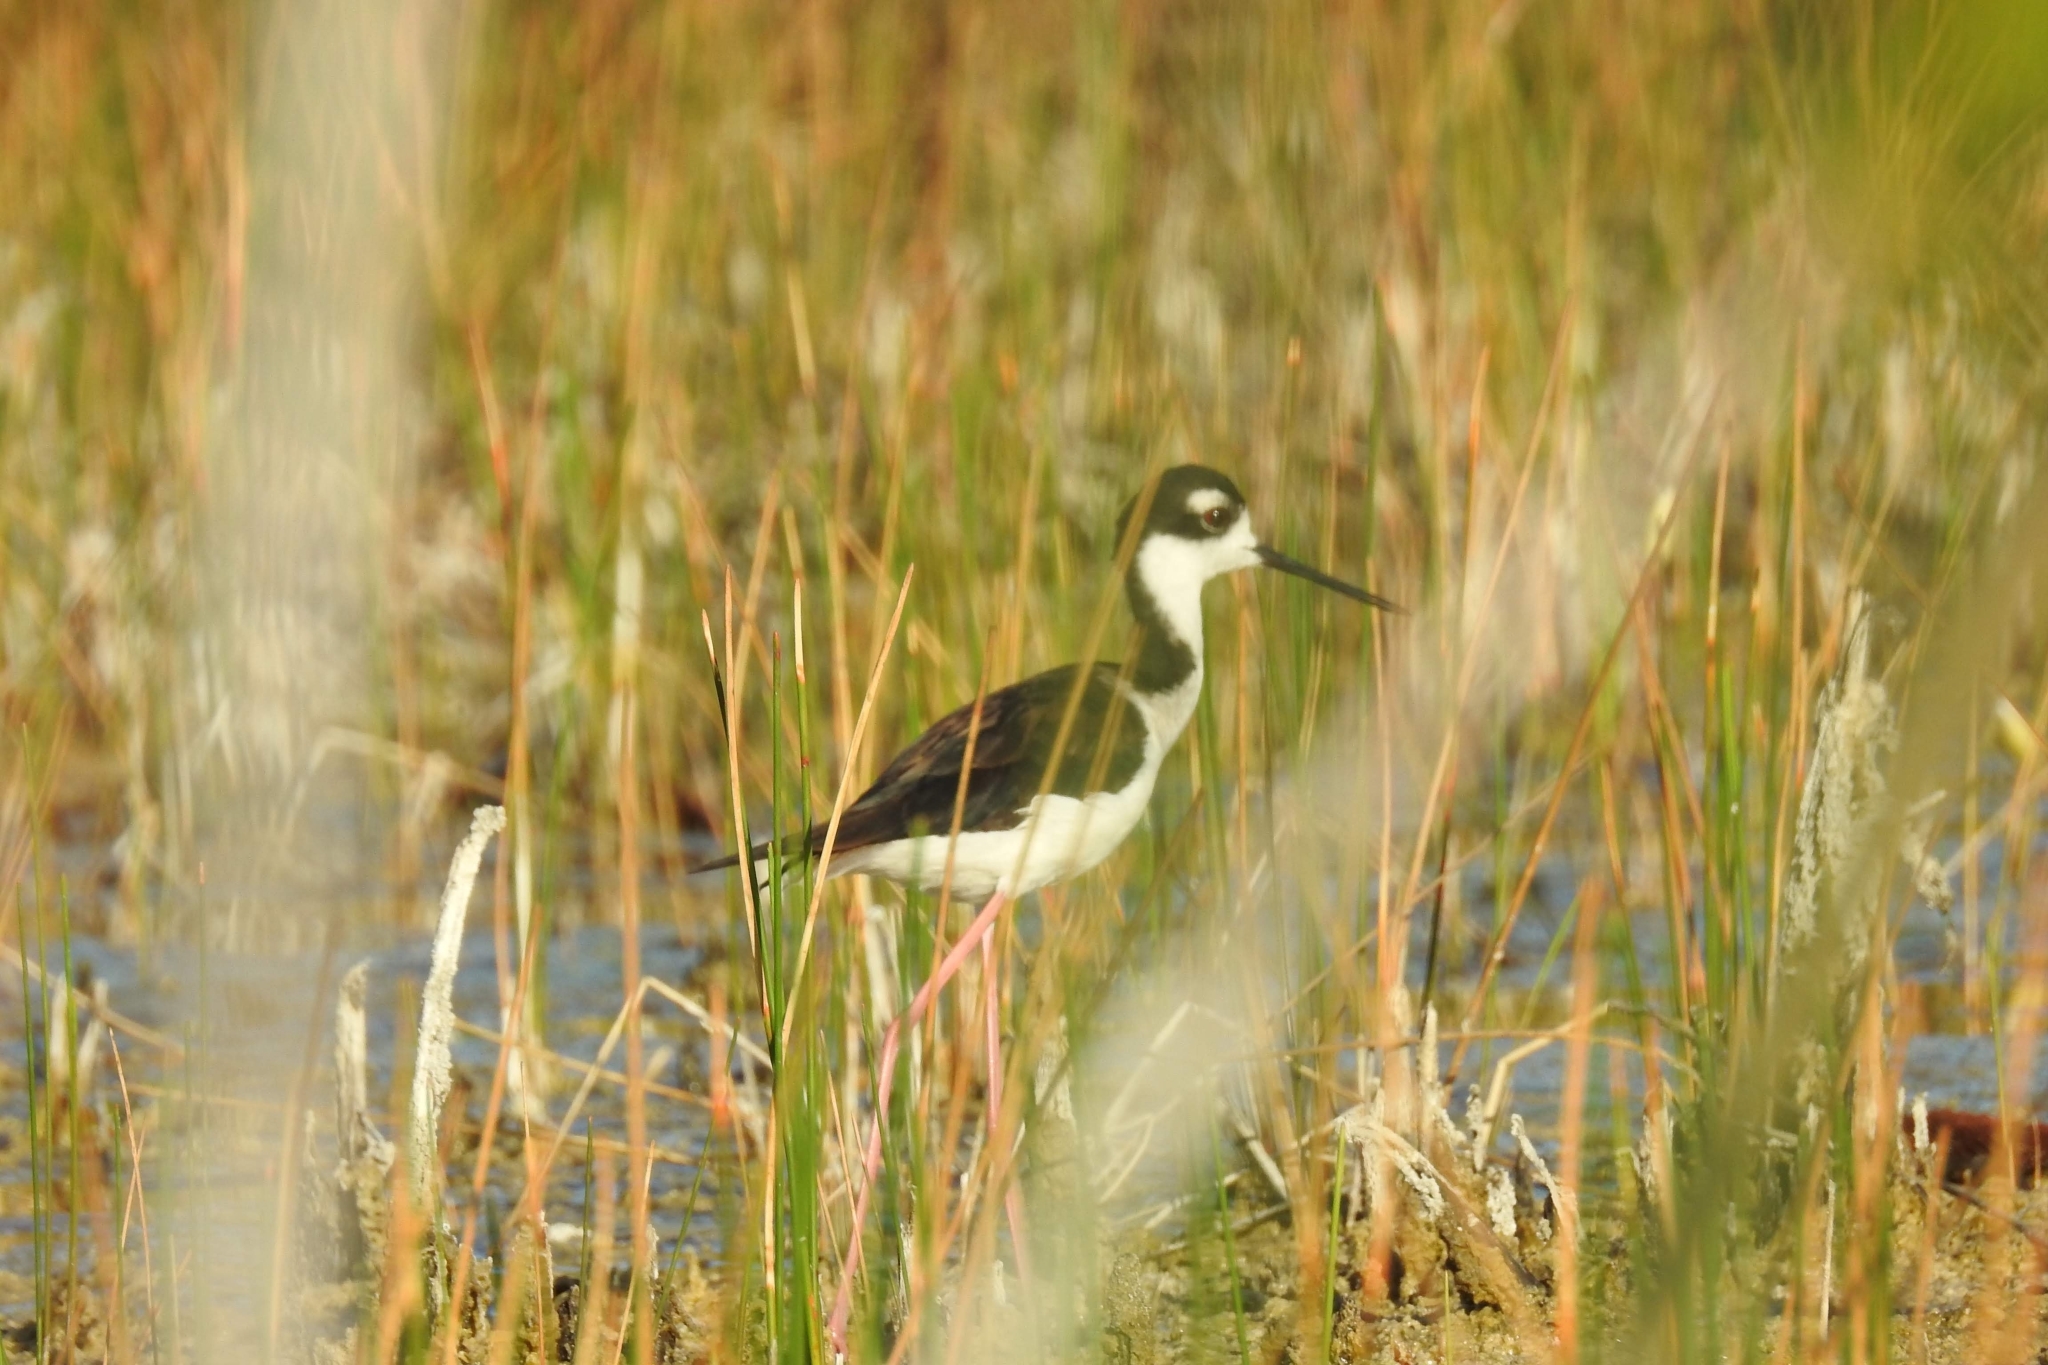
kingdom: Animalia
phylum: Chordata
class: Aves
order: Charadriiformes
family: Recurvirostridae
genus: Himantopus
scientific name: Himantopus mexicanus
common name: Black-necked stilt
